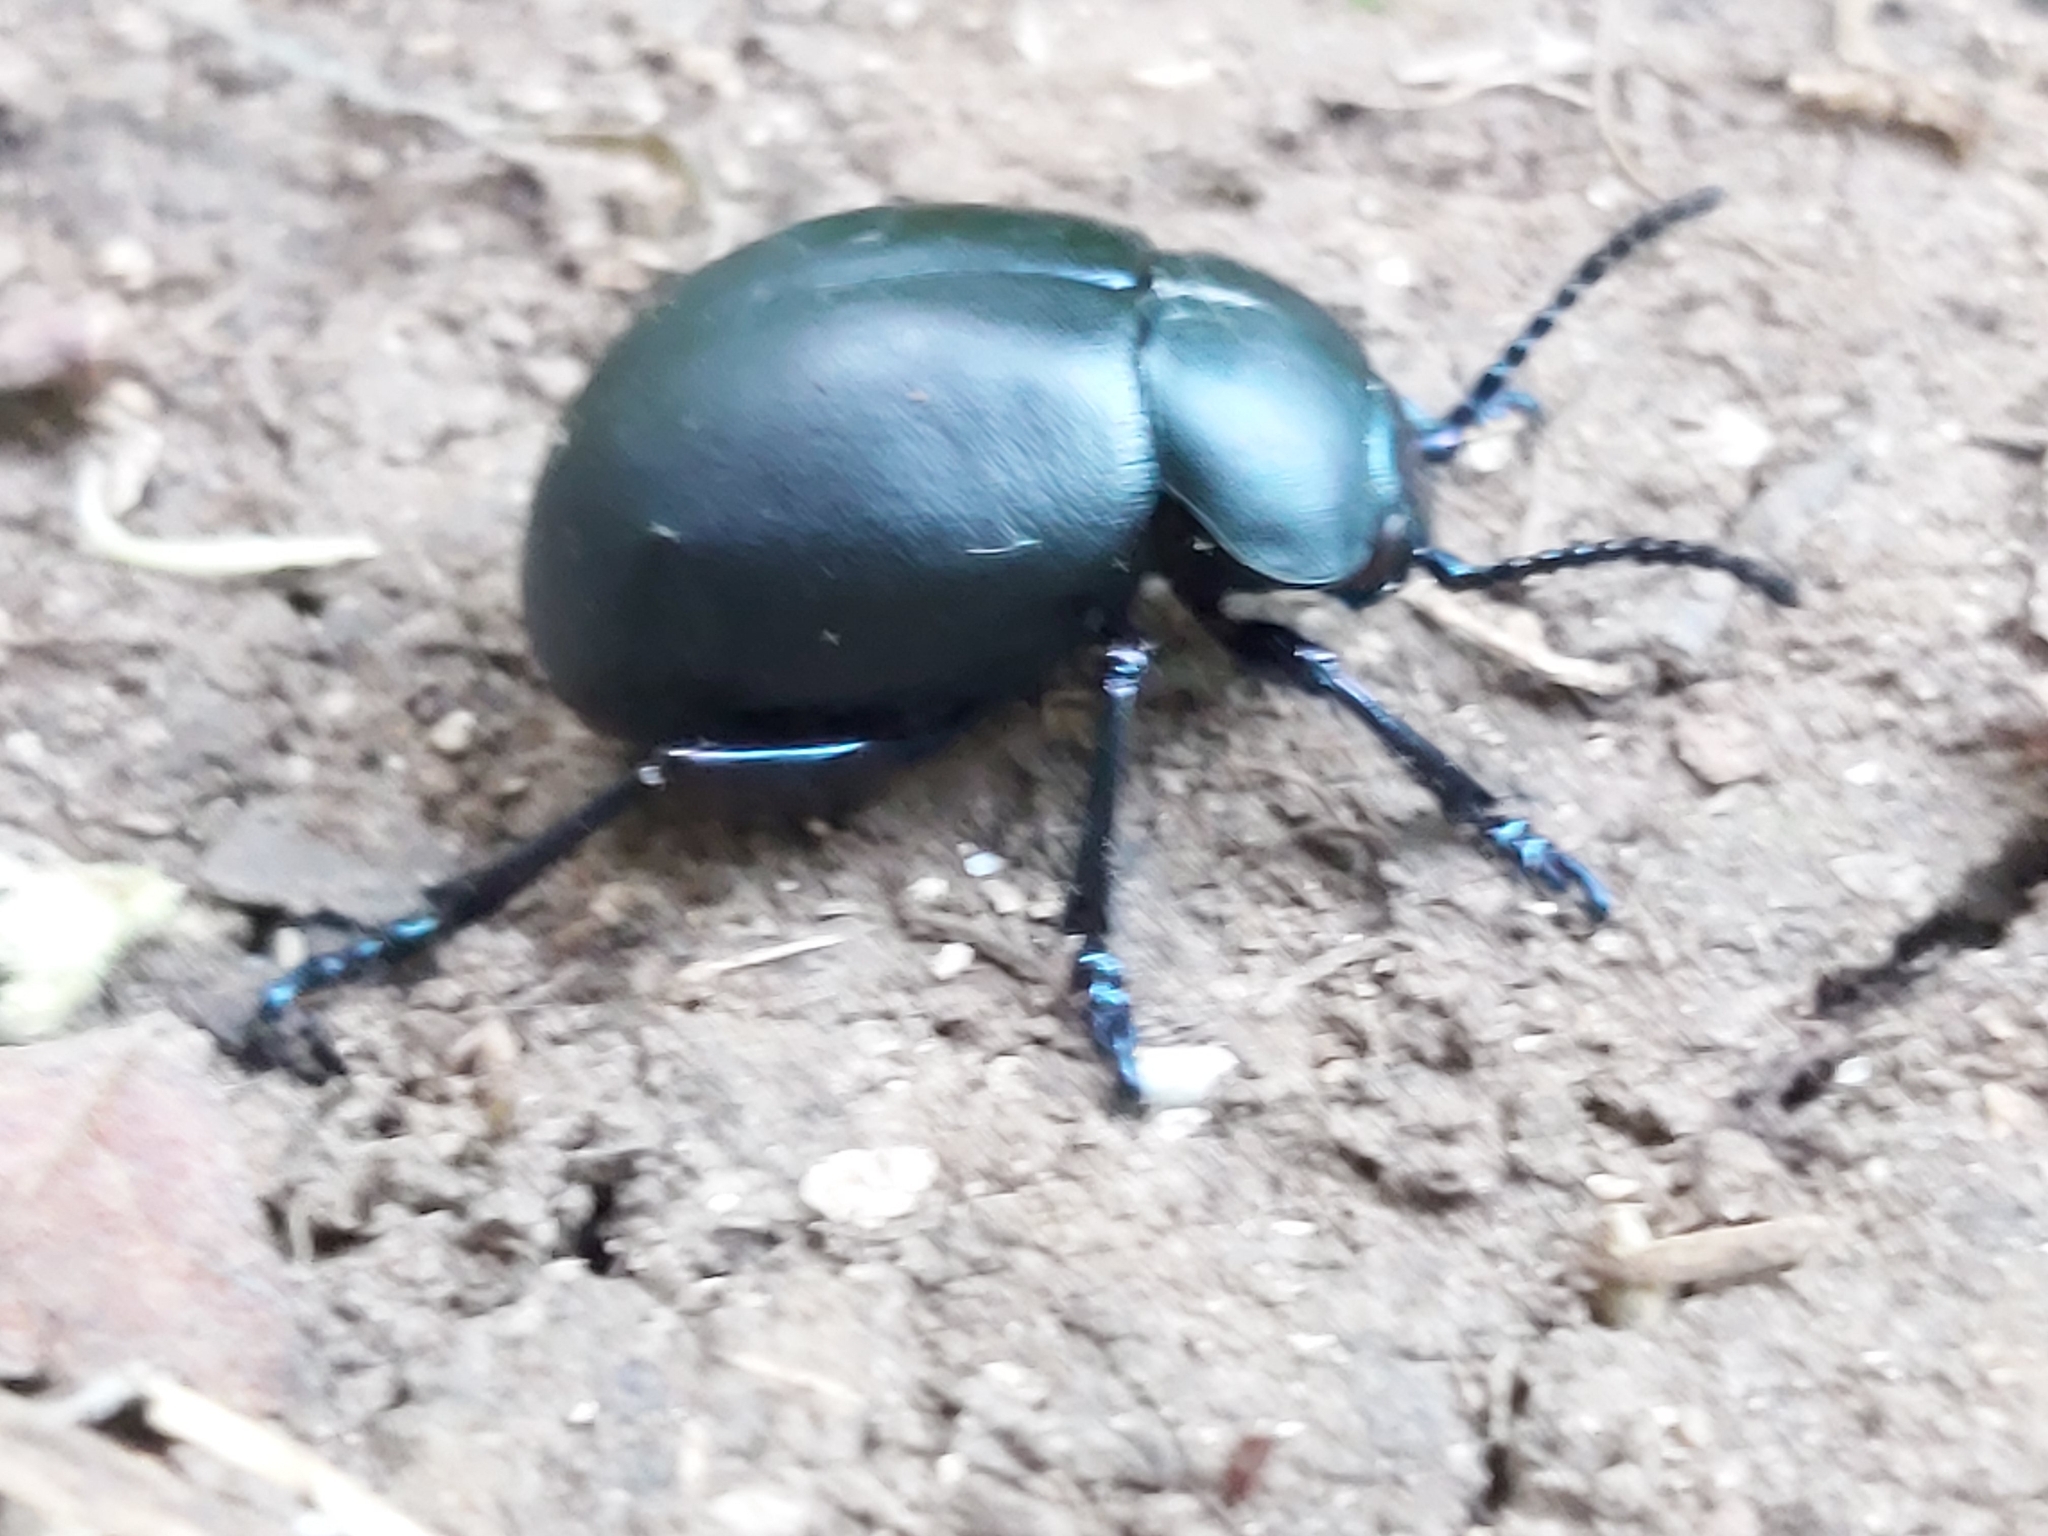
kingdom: Animalia
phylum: Arthropoda
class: Insecta
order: Coleoptera
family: Chrysomelidae
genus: Timarcha
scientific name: Timarcha tenebricosa
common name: Bloody-nosed beetle
